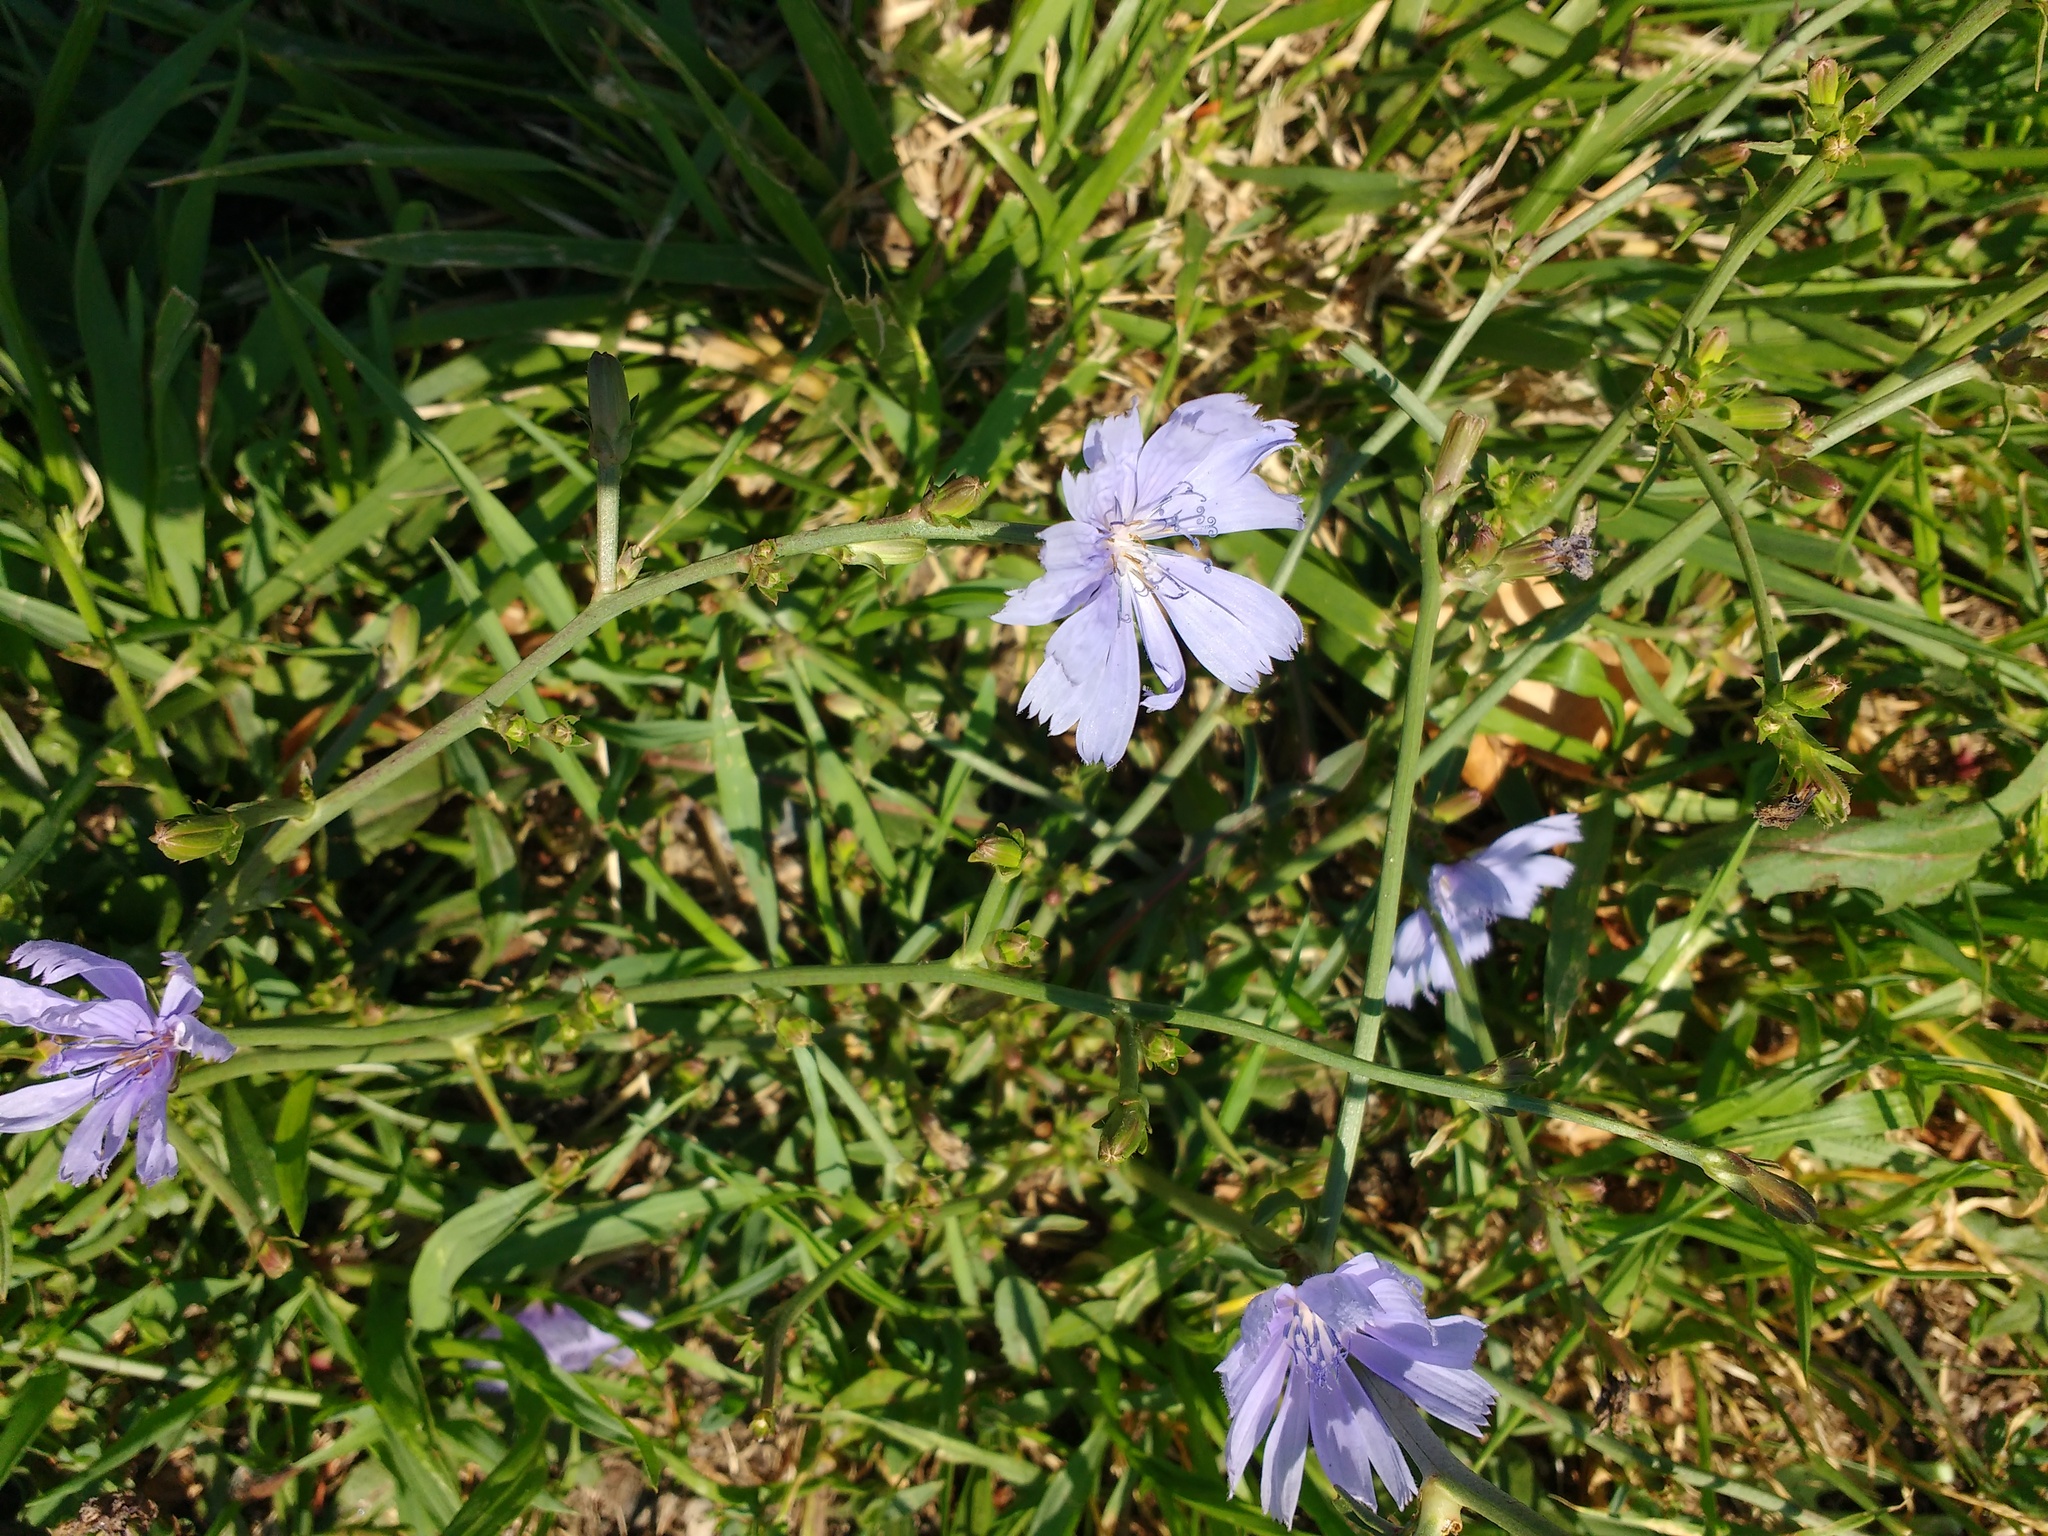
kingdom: Plantae
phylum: Tracheophyta
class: Magnoliopsida
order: Asterales
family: Asteraceae
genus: Cichorium
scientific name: Cichorium intybus
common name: Chicory
